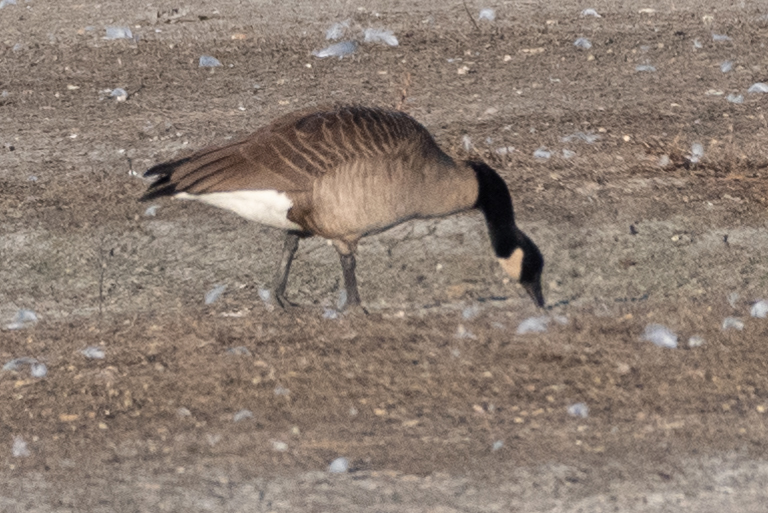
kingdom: Animalia
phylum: Chordata
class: Aves
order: Anseriformes
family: Anatidae
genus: Branta
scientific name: Branta canadensis
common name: Canada goose
